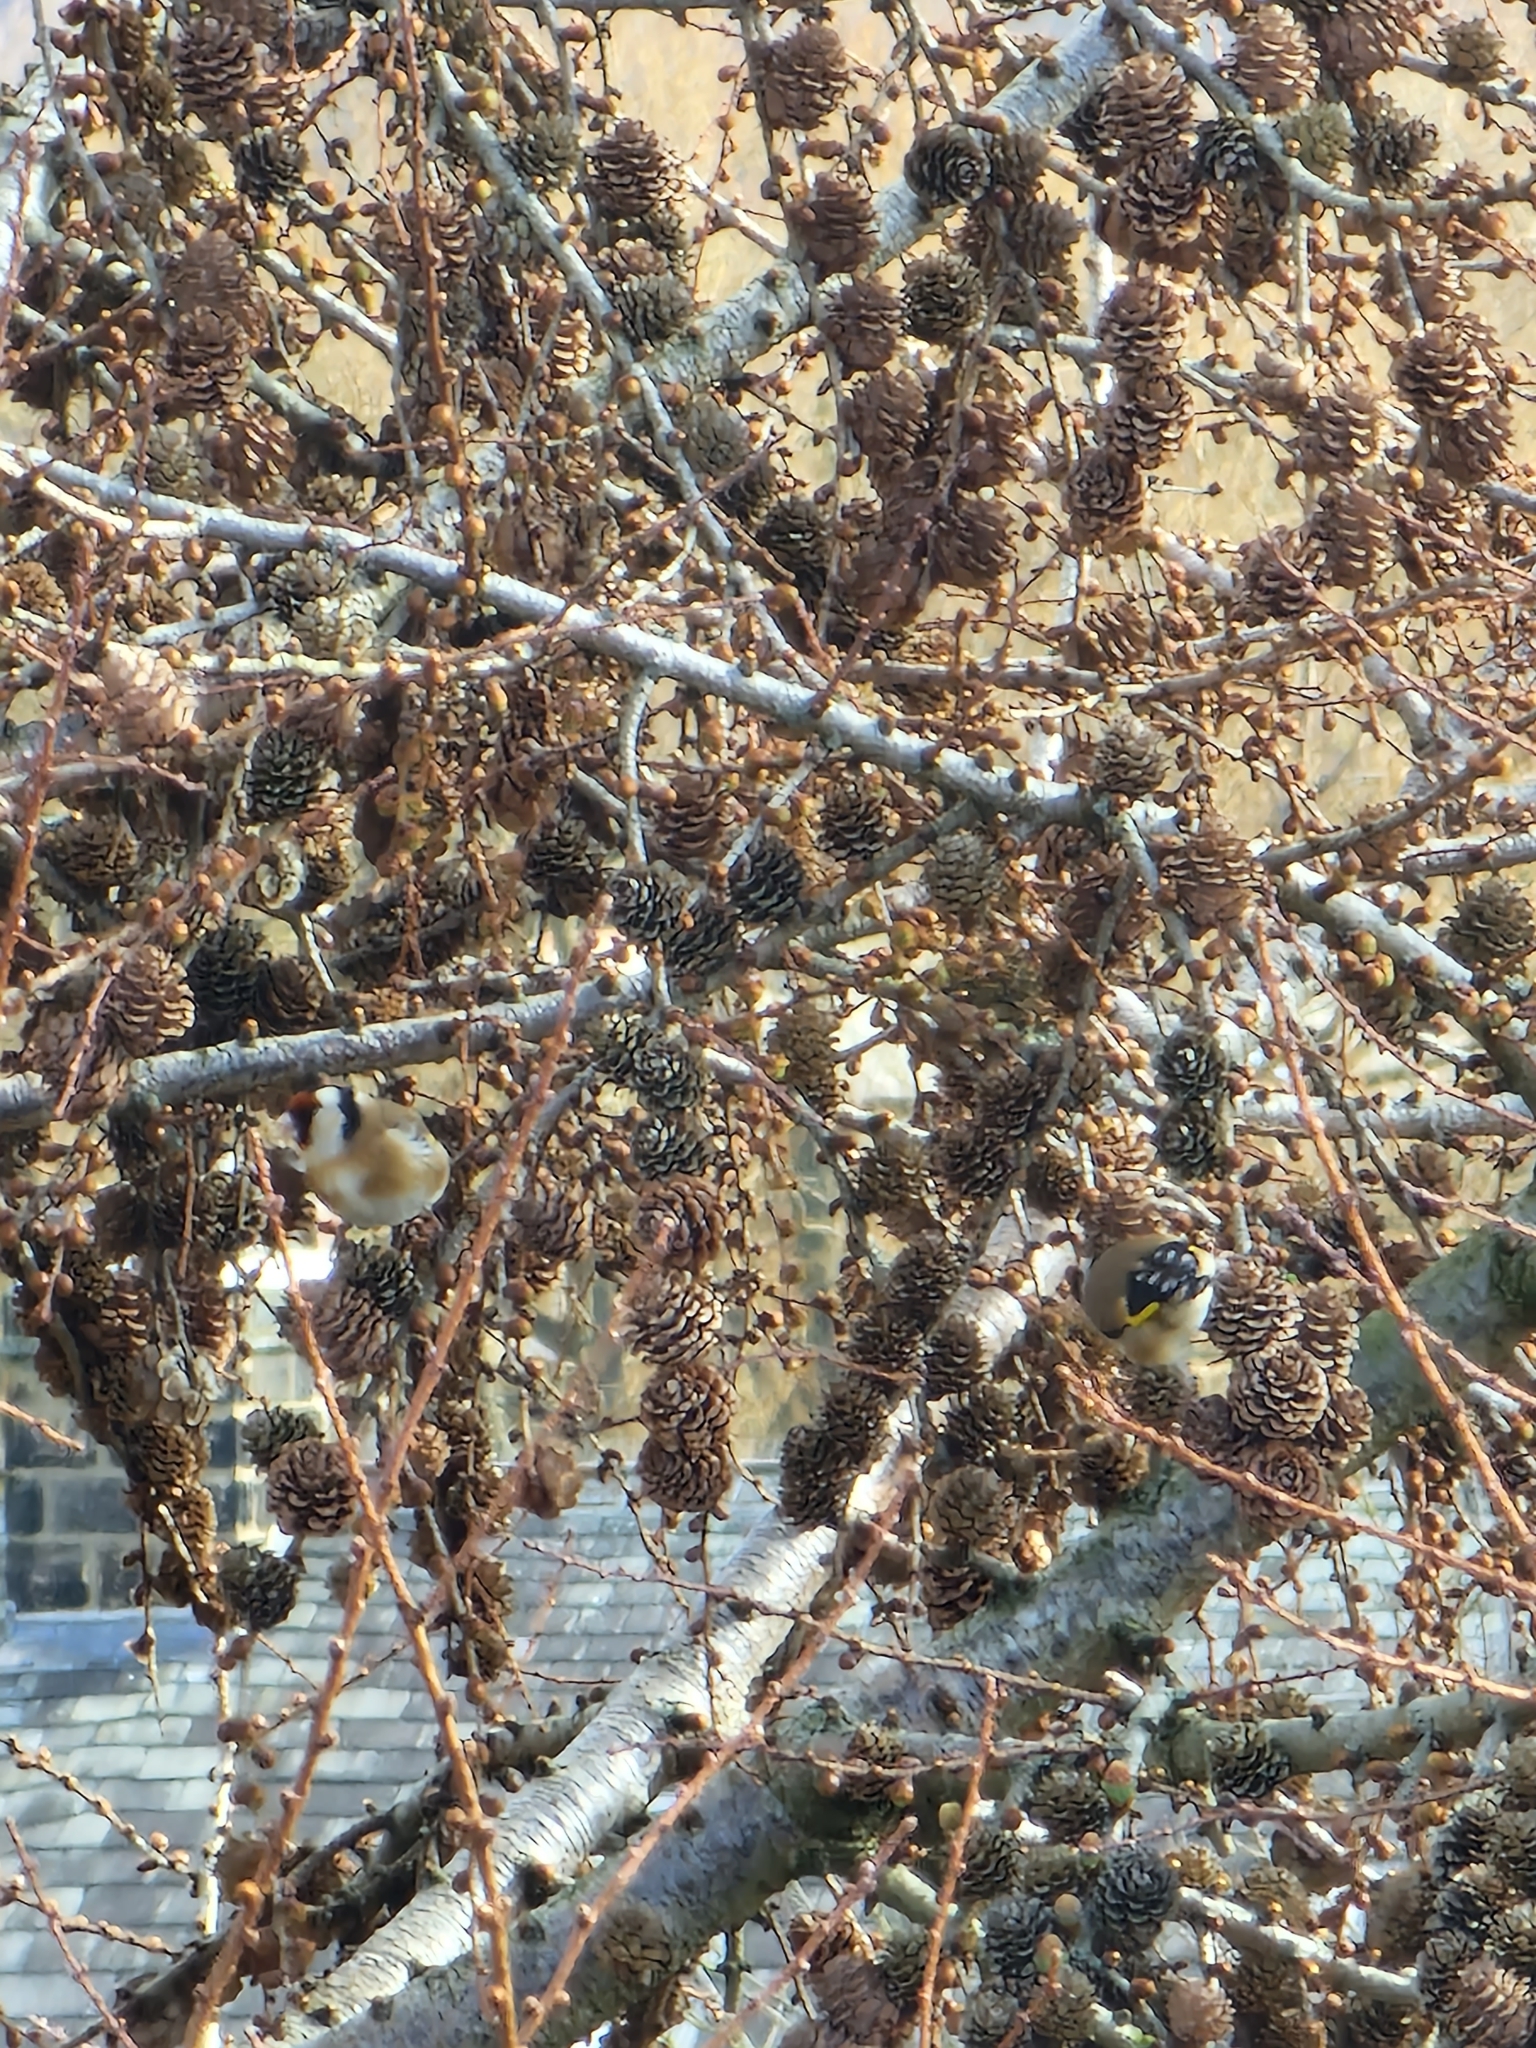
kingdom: Animalia
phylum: Chordata
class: Aves
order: Passeriformes
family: Fringillidae
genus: Carduelis
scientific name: Carduelis carduelis
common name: European goldfinch
